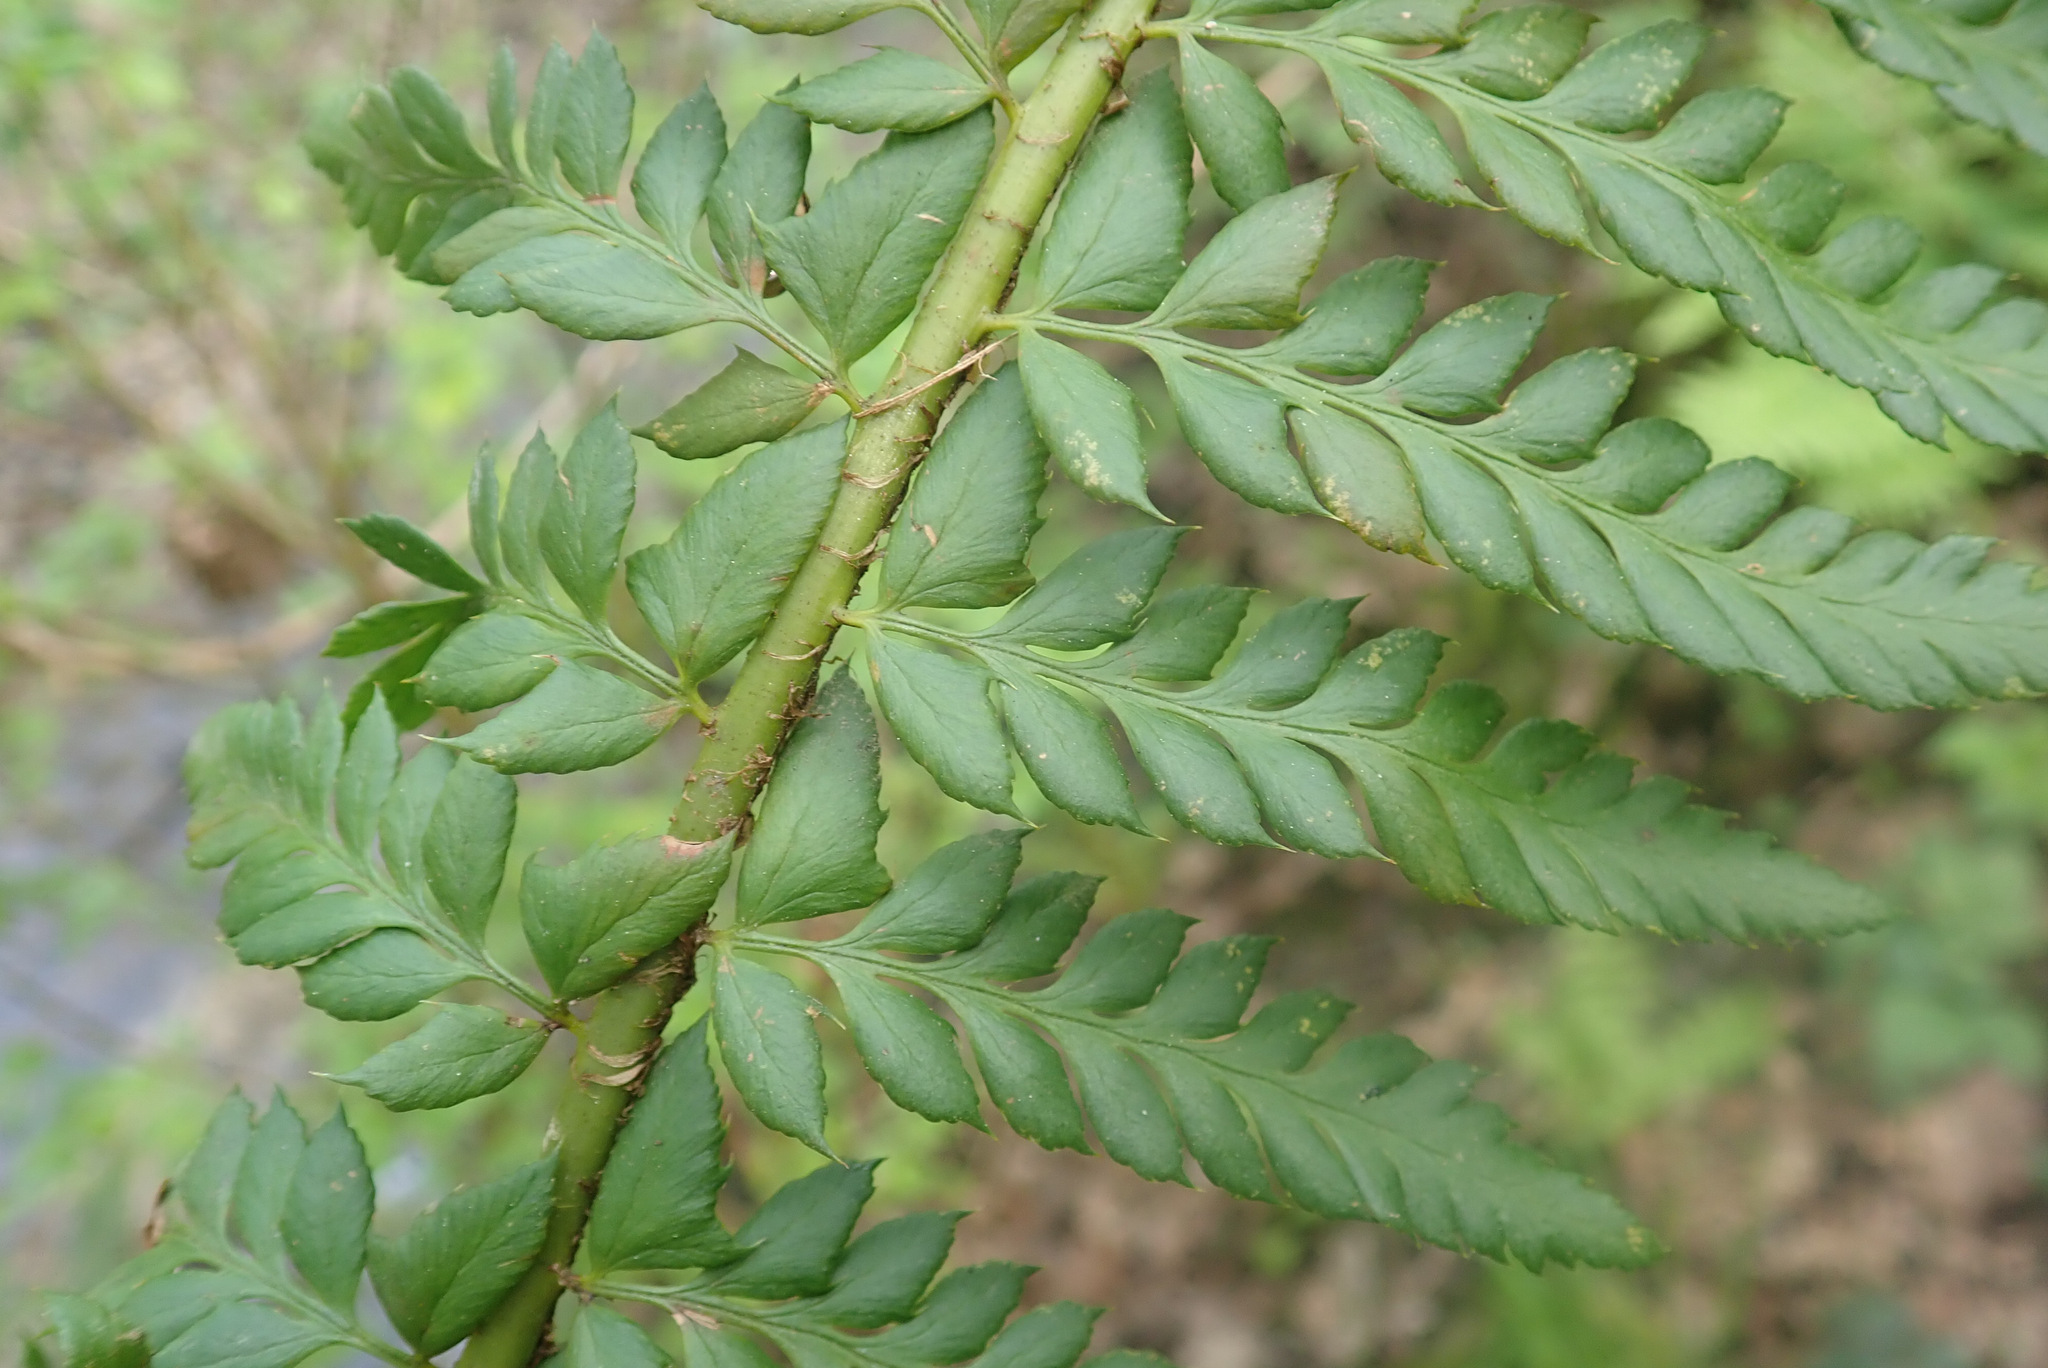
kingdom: Plantae
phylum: Tracheophyta
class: Polypodiopsida
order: Polypodiales
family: Dryopteridaceae
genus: Polystichum
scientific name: Polystichum aculeatum
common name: Hard shield-fern
